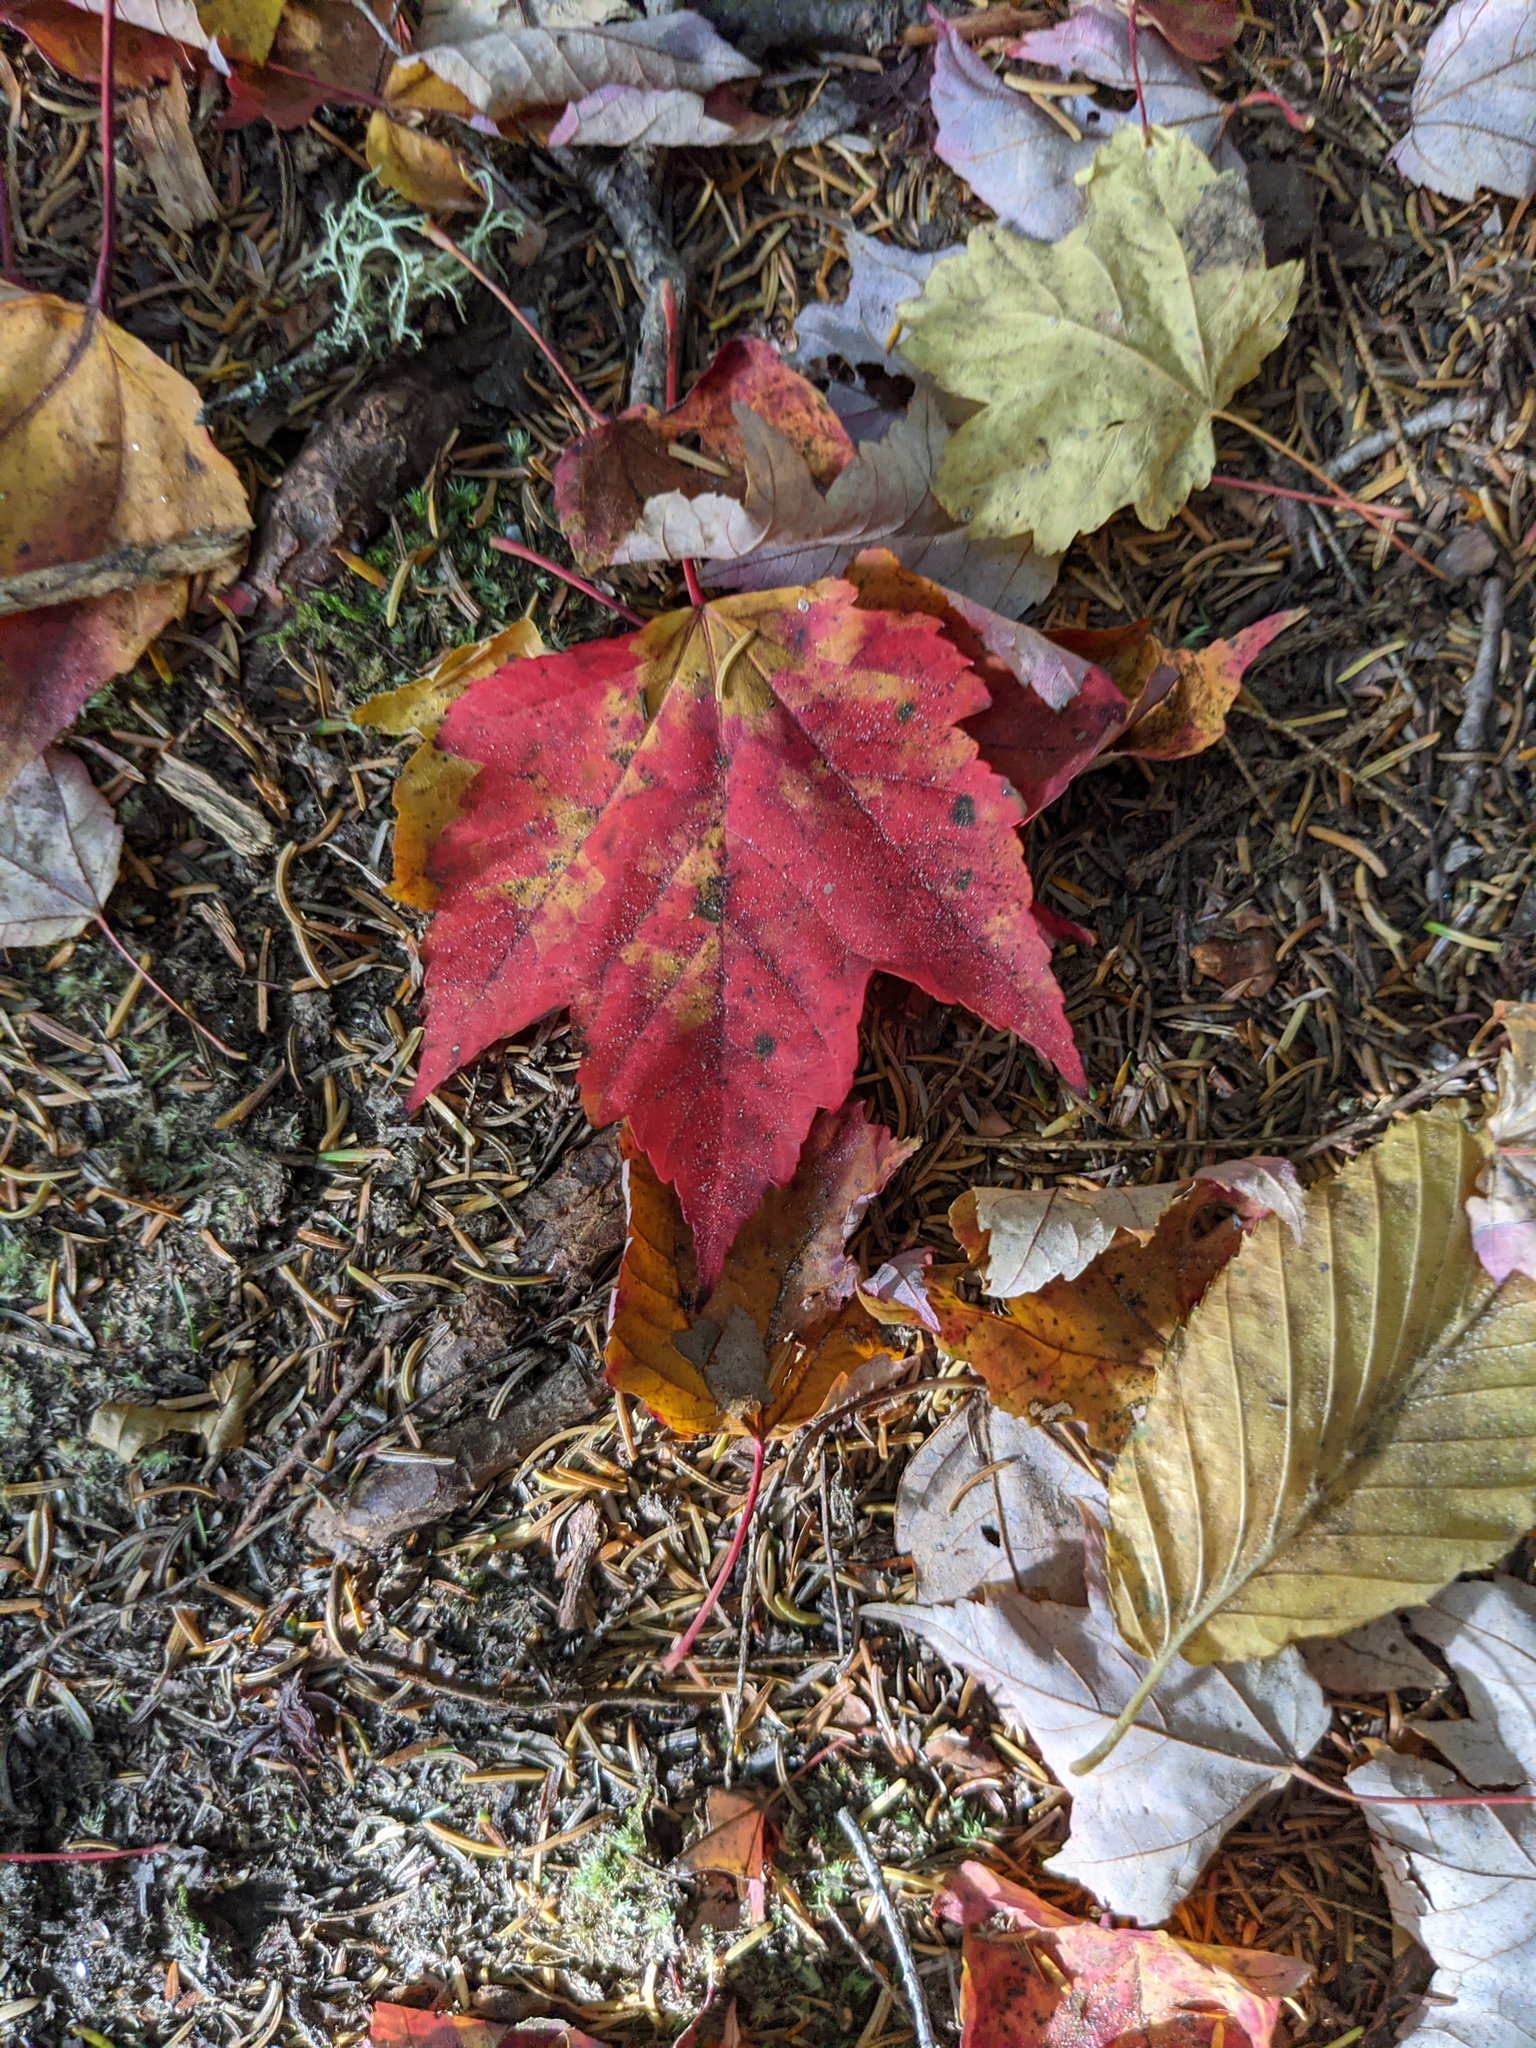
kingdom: Plantae
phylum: Tracheophyta
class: Magnoliopsida
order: Sapindales
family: Sapindaceae
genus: Acer
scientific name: Acer rubrum
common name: Red maple
